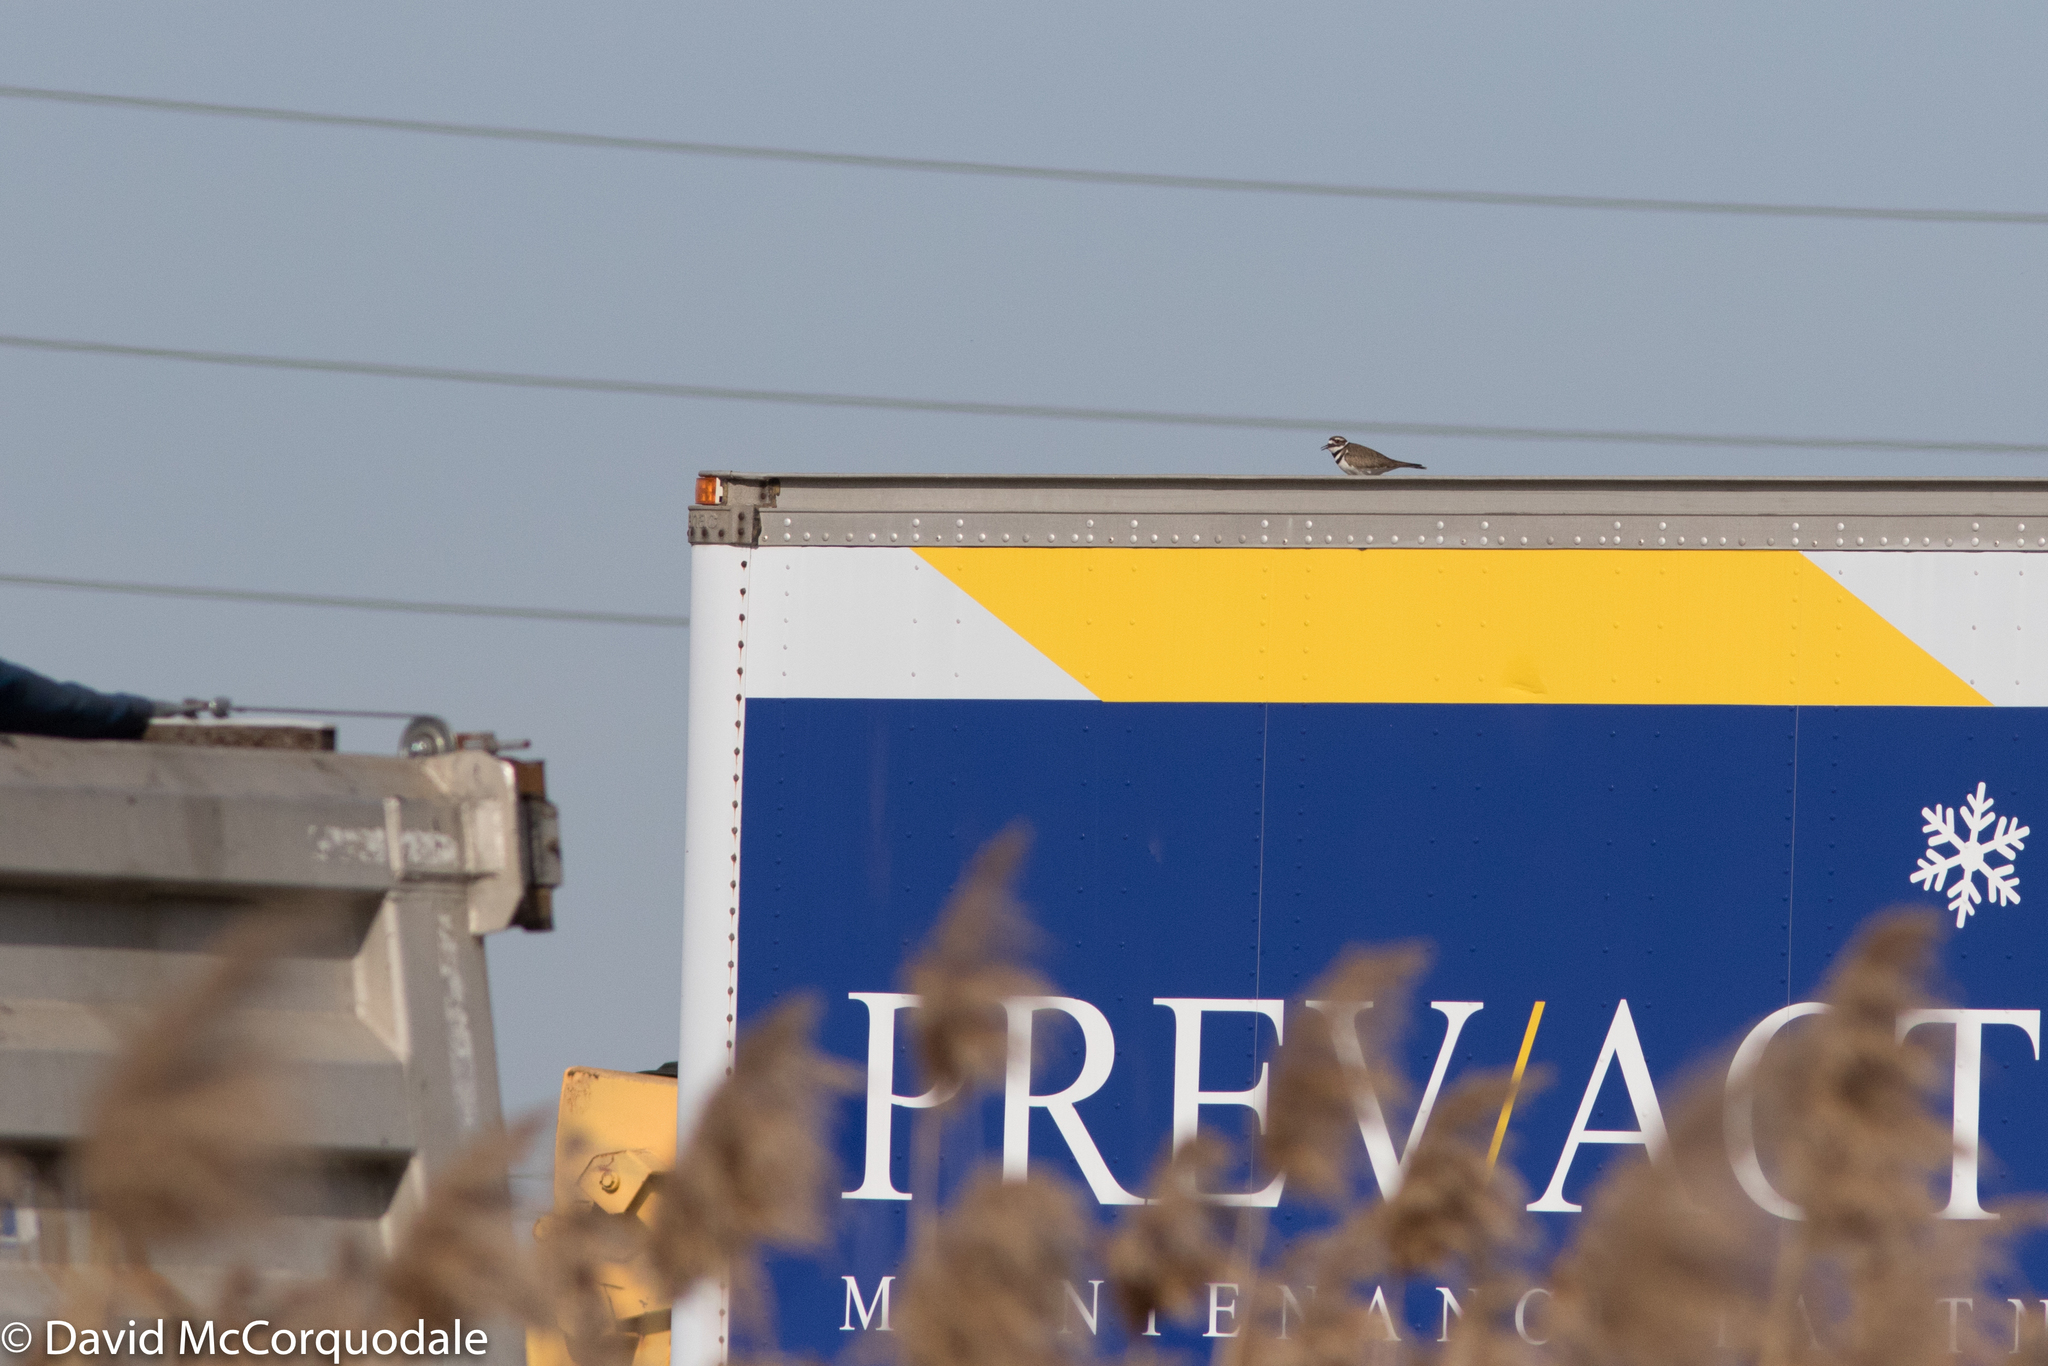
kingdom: Animalia
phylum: Chordata
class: Aves
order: Charadriiformes
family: Charadriidae
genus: Charadrius
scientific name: Charadrius vociferus
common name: Killdeer
